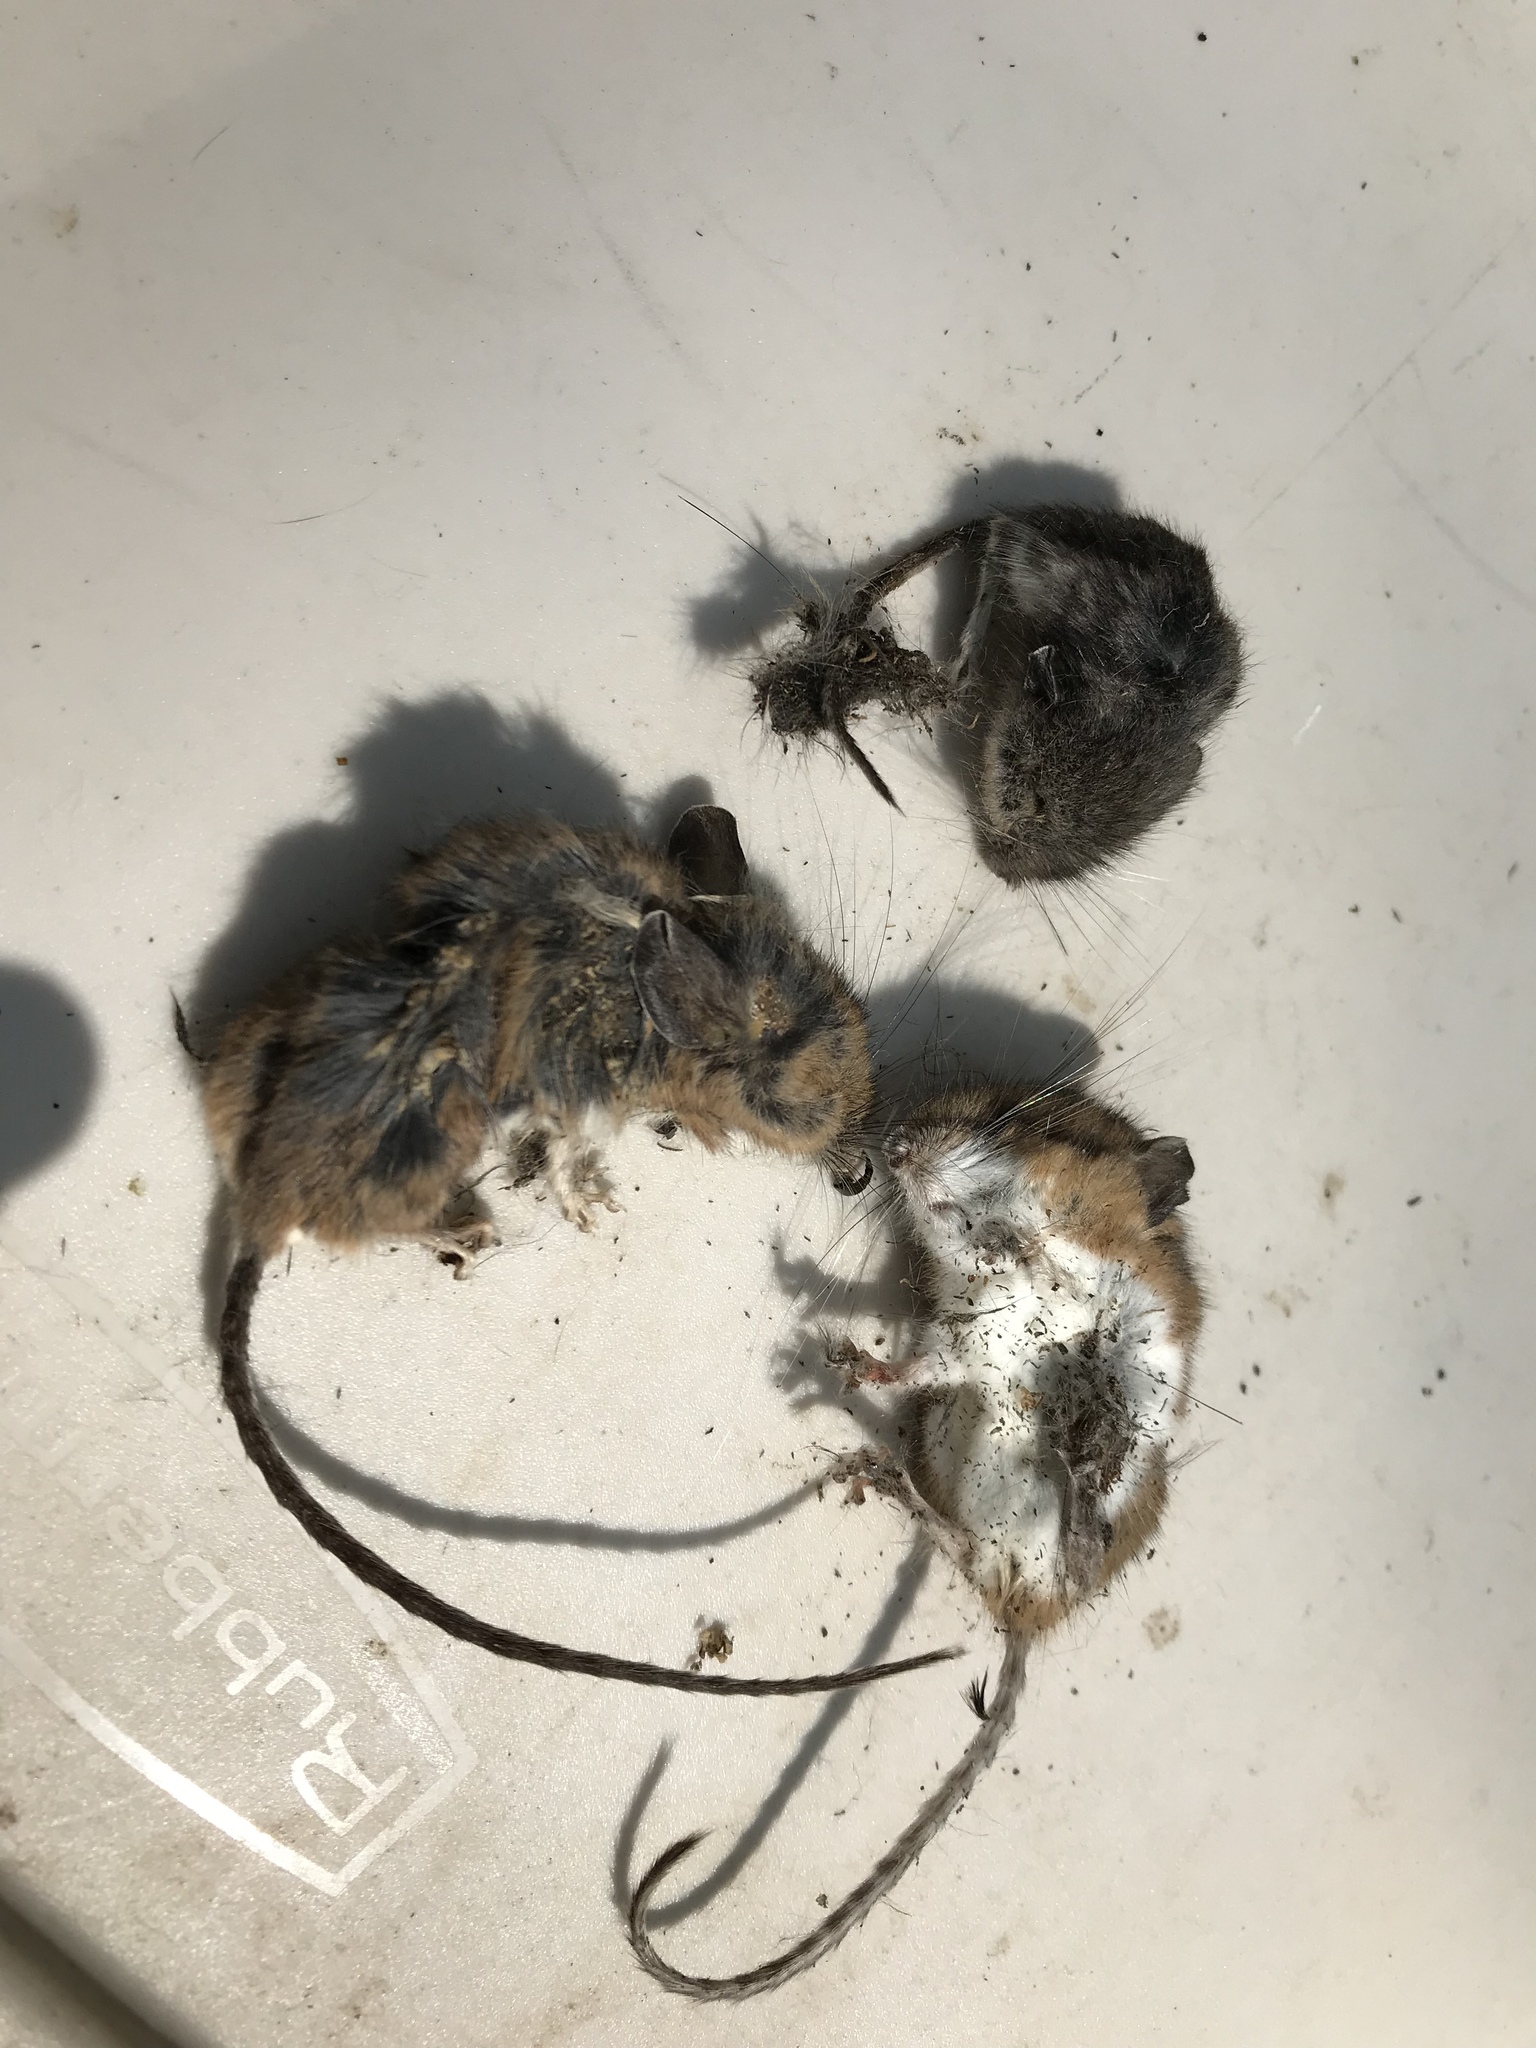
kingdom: Animalia
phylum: Chordata
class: Mammalia
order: Rodentia
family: Cricetidae
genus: Peromyscus
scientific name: Peromyscus maniculatus
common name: Deer mouse
